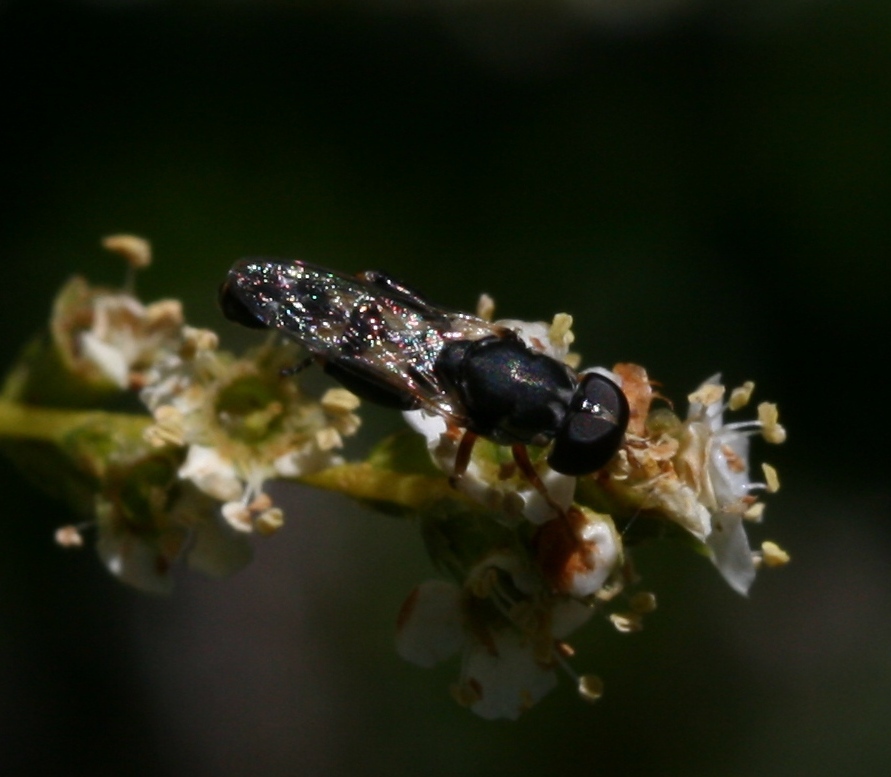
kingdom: Animalia
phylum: Arthropoda
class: Insecta
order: Diptera
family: Syrphidae
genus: Syritta
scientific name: Syritta pipiens
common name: Hover fly
